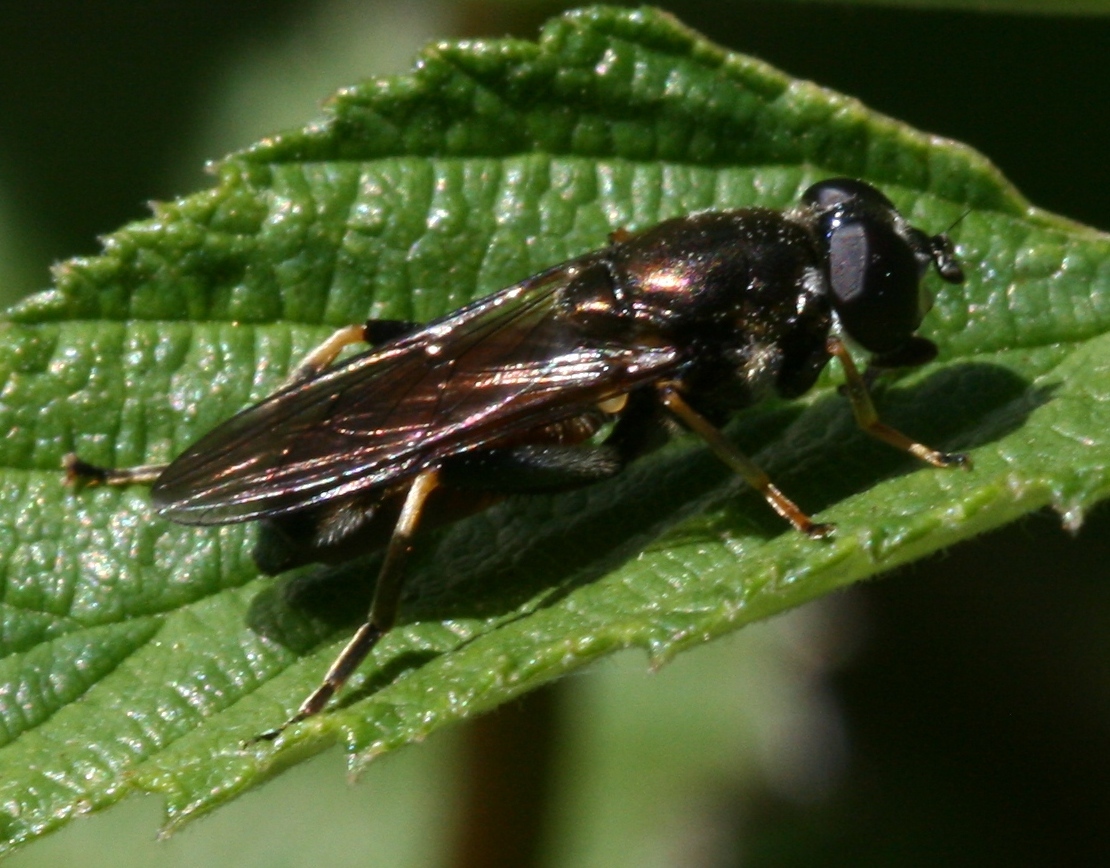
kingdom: Animalia
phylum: Arthropoda
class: Insecta
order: Diptera
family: Syrphidae
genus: Xylota
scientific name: Xylota segnis
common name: Brown-toed forest fly
